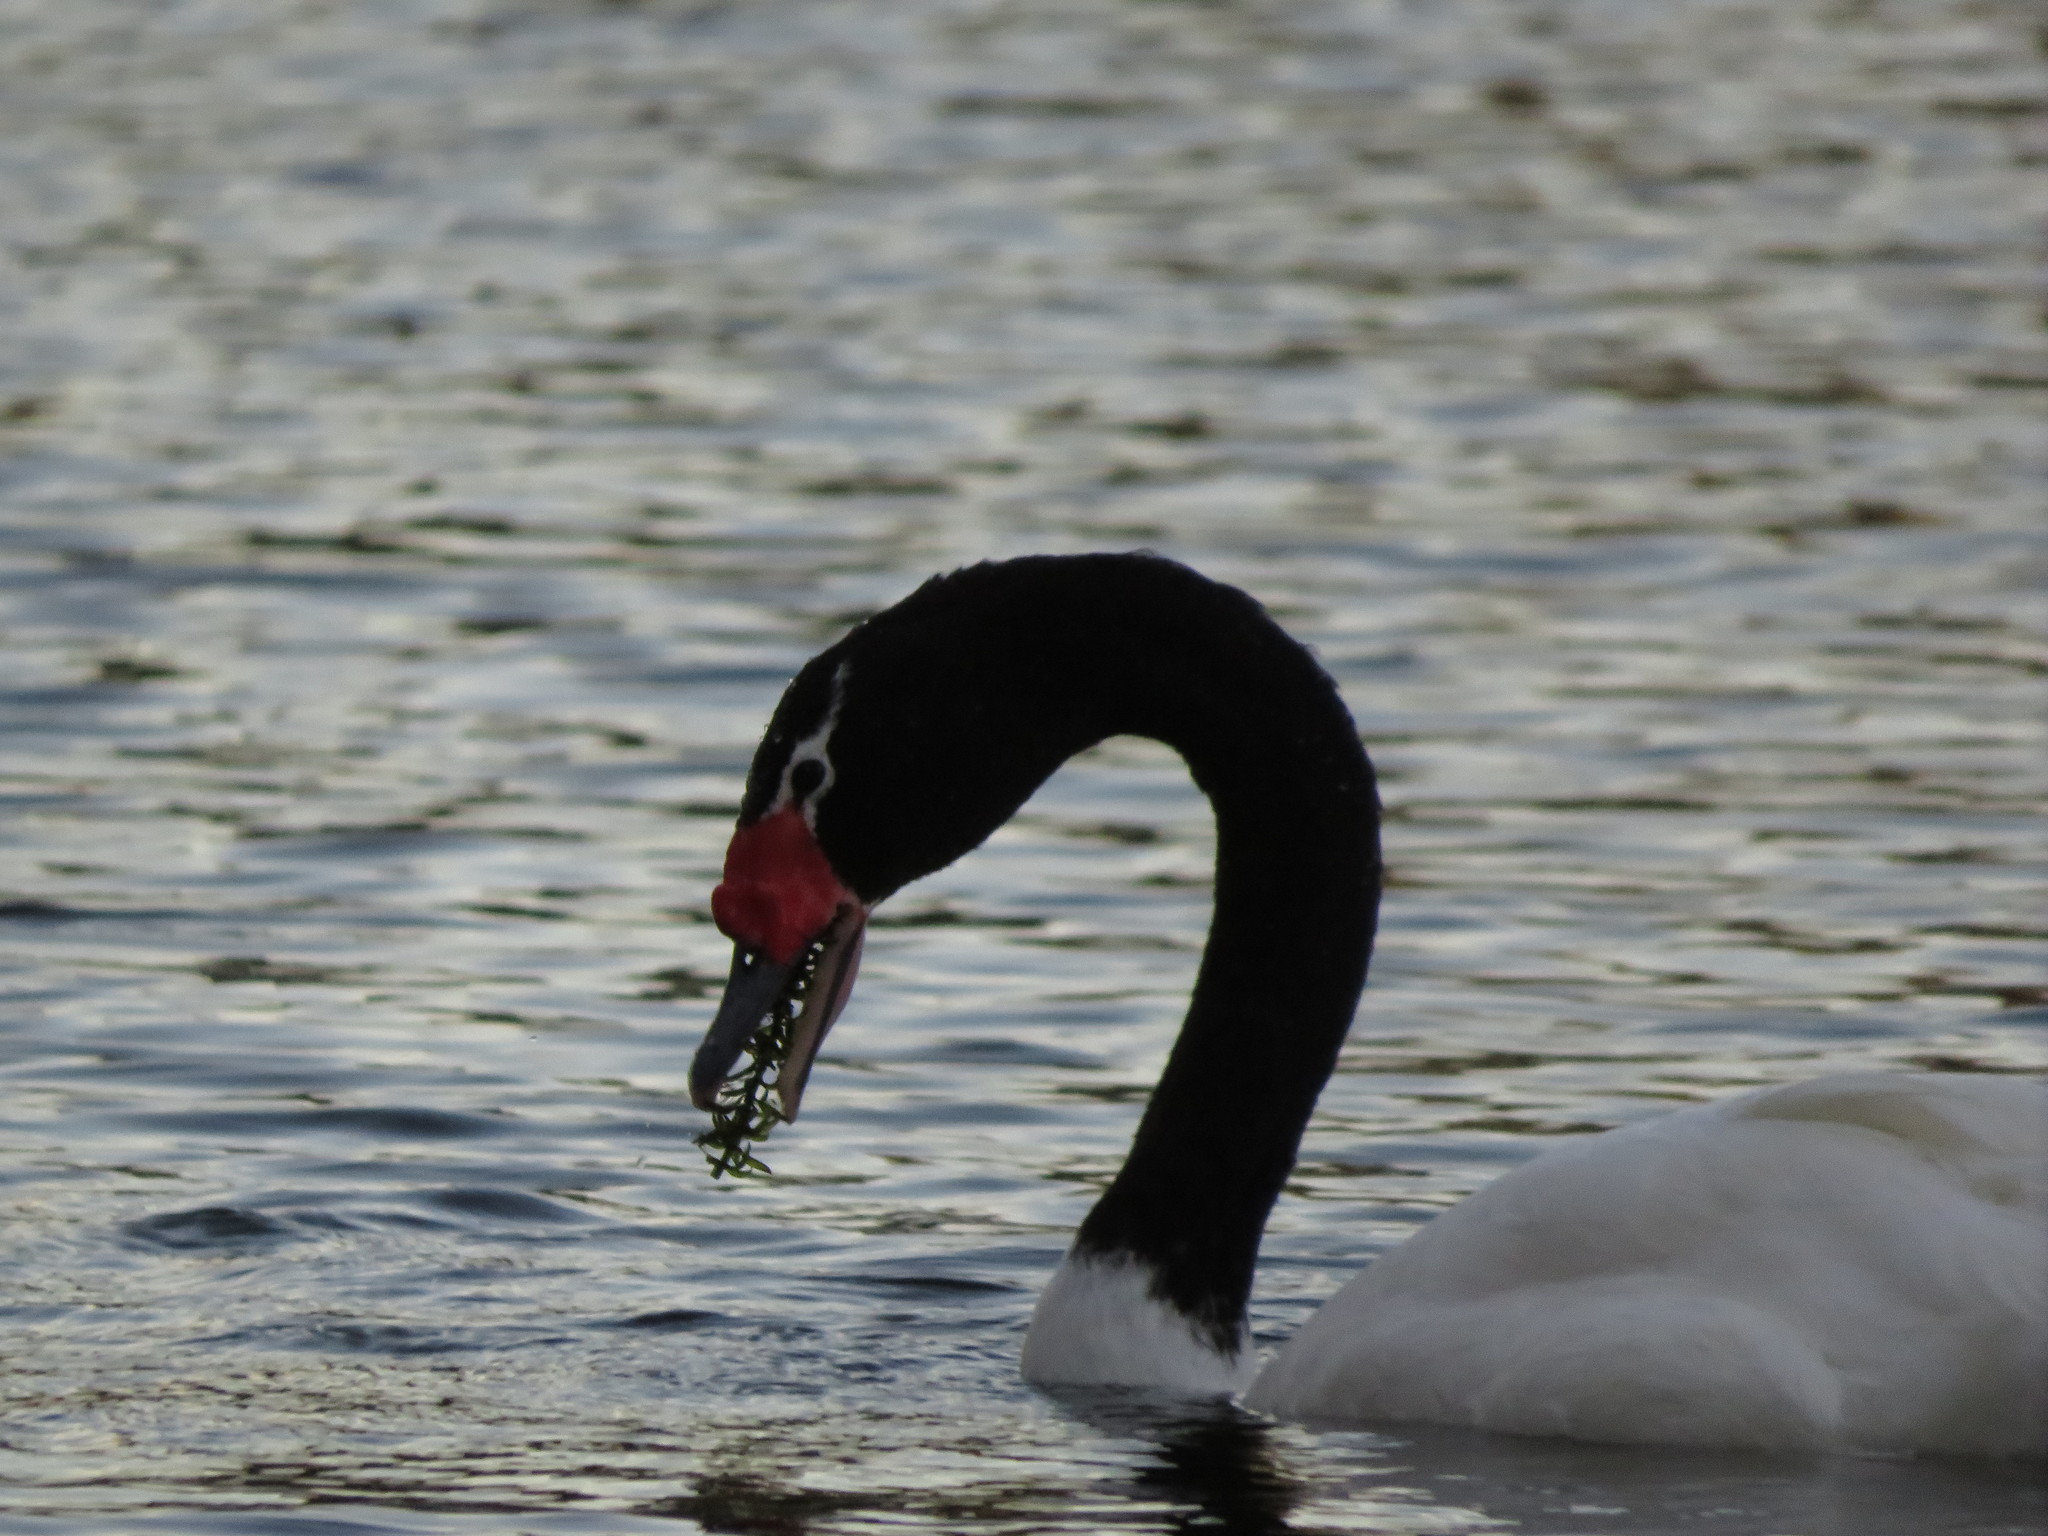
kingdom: Animalia
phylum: Chordata
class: Aves
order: Anseriformes
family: Anatidae
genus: Cygnus
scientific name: Cygnus melancoryphus
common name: Black-necked swan
